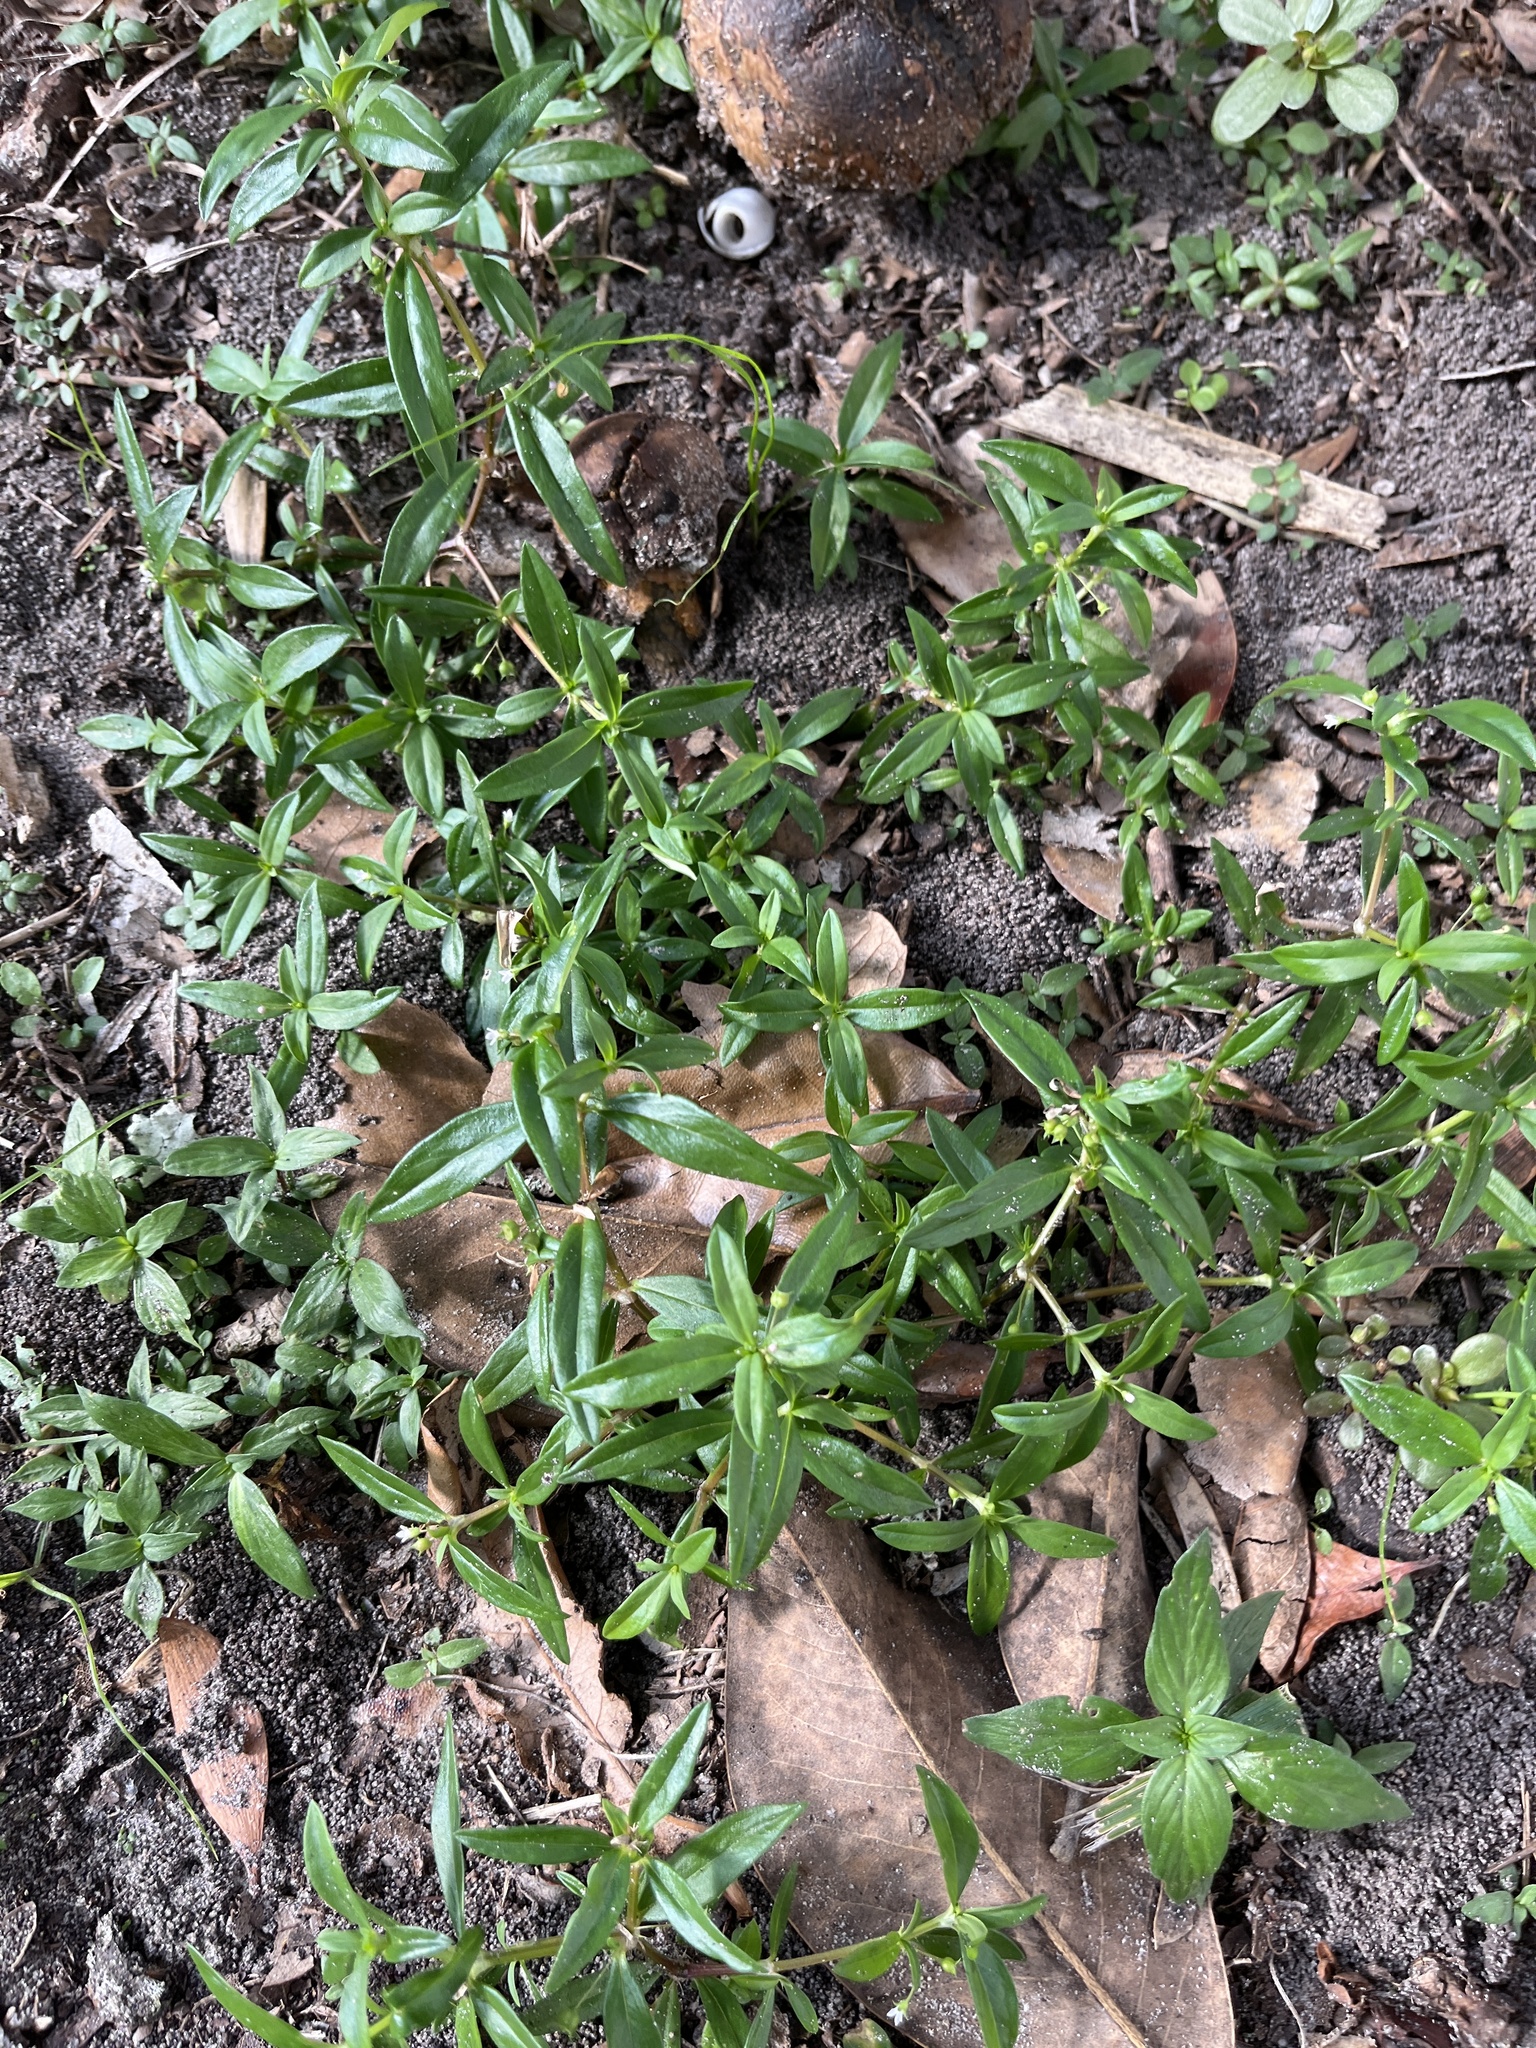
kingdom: Plantae
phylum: Tracheophyta
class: Magnoliopsida
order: Gentianales
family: Rubiaceae
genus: Oldenlandia
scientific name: Oldenlandia corymbosa
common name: Flat-top mille graines
